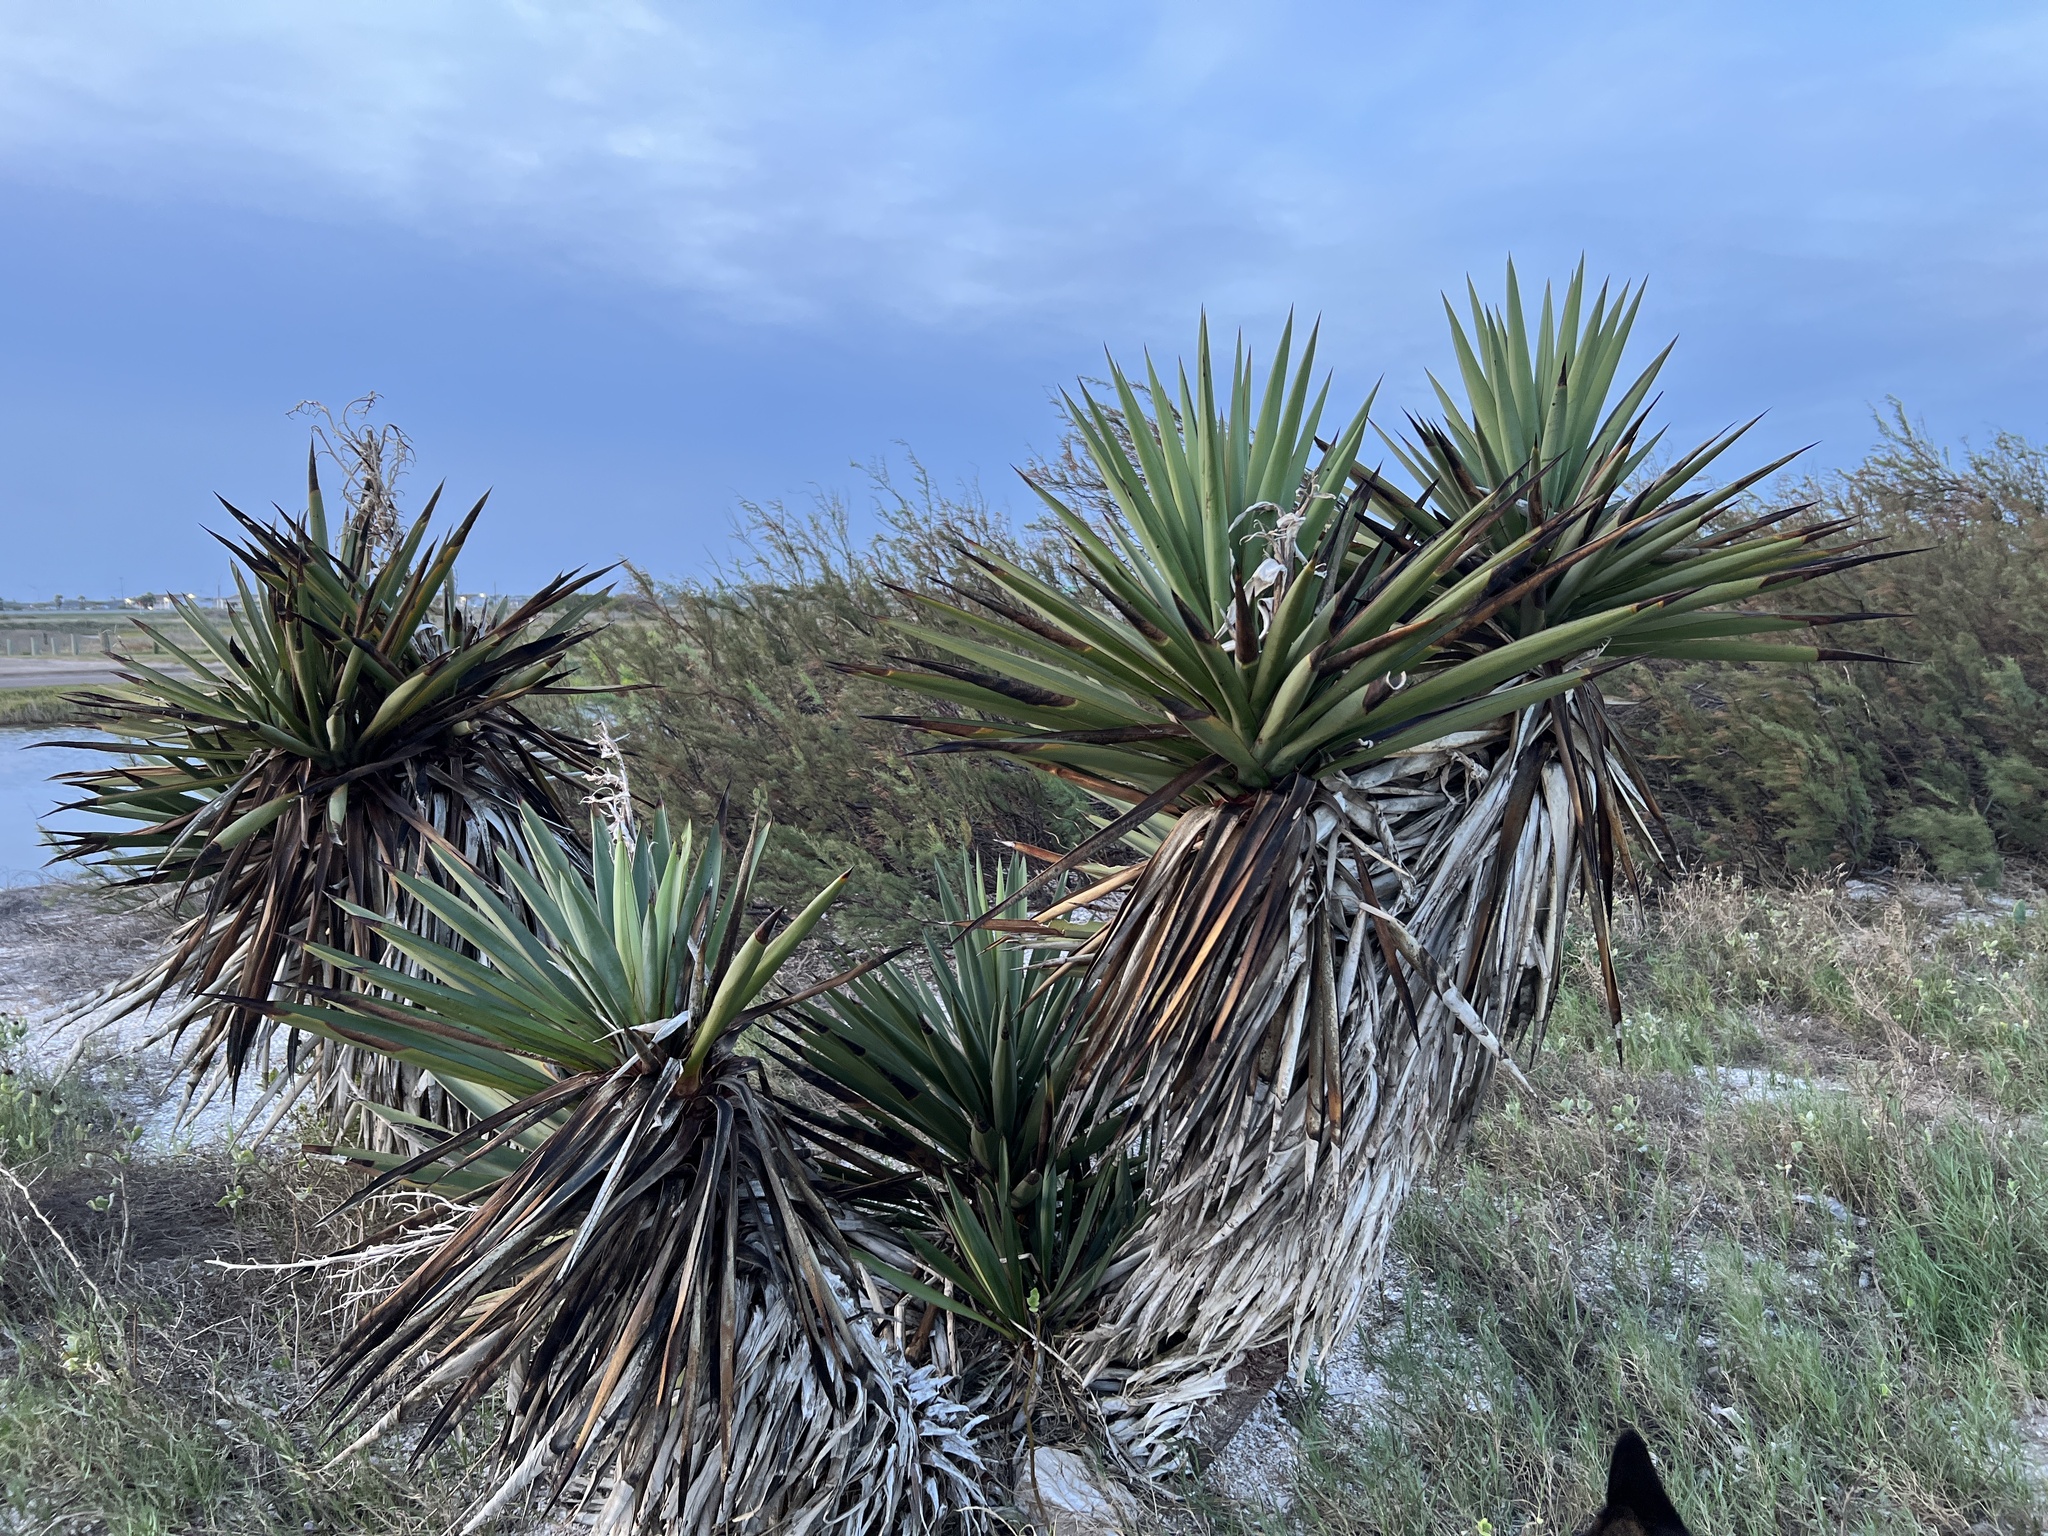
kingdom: Plantae
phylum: Tracheophyta
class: Liliopsida
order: Asparagales
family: Asparagaceae
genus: Yucca
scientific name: Yucca treculiana
